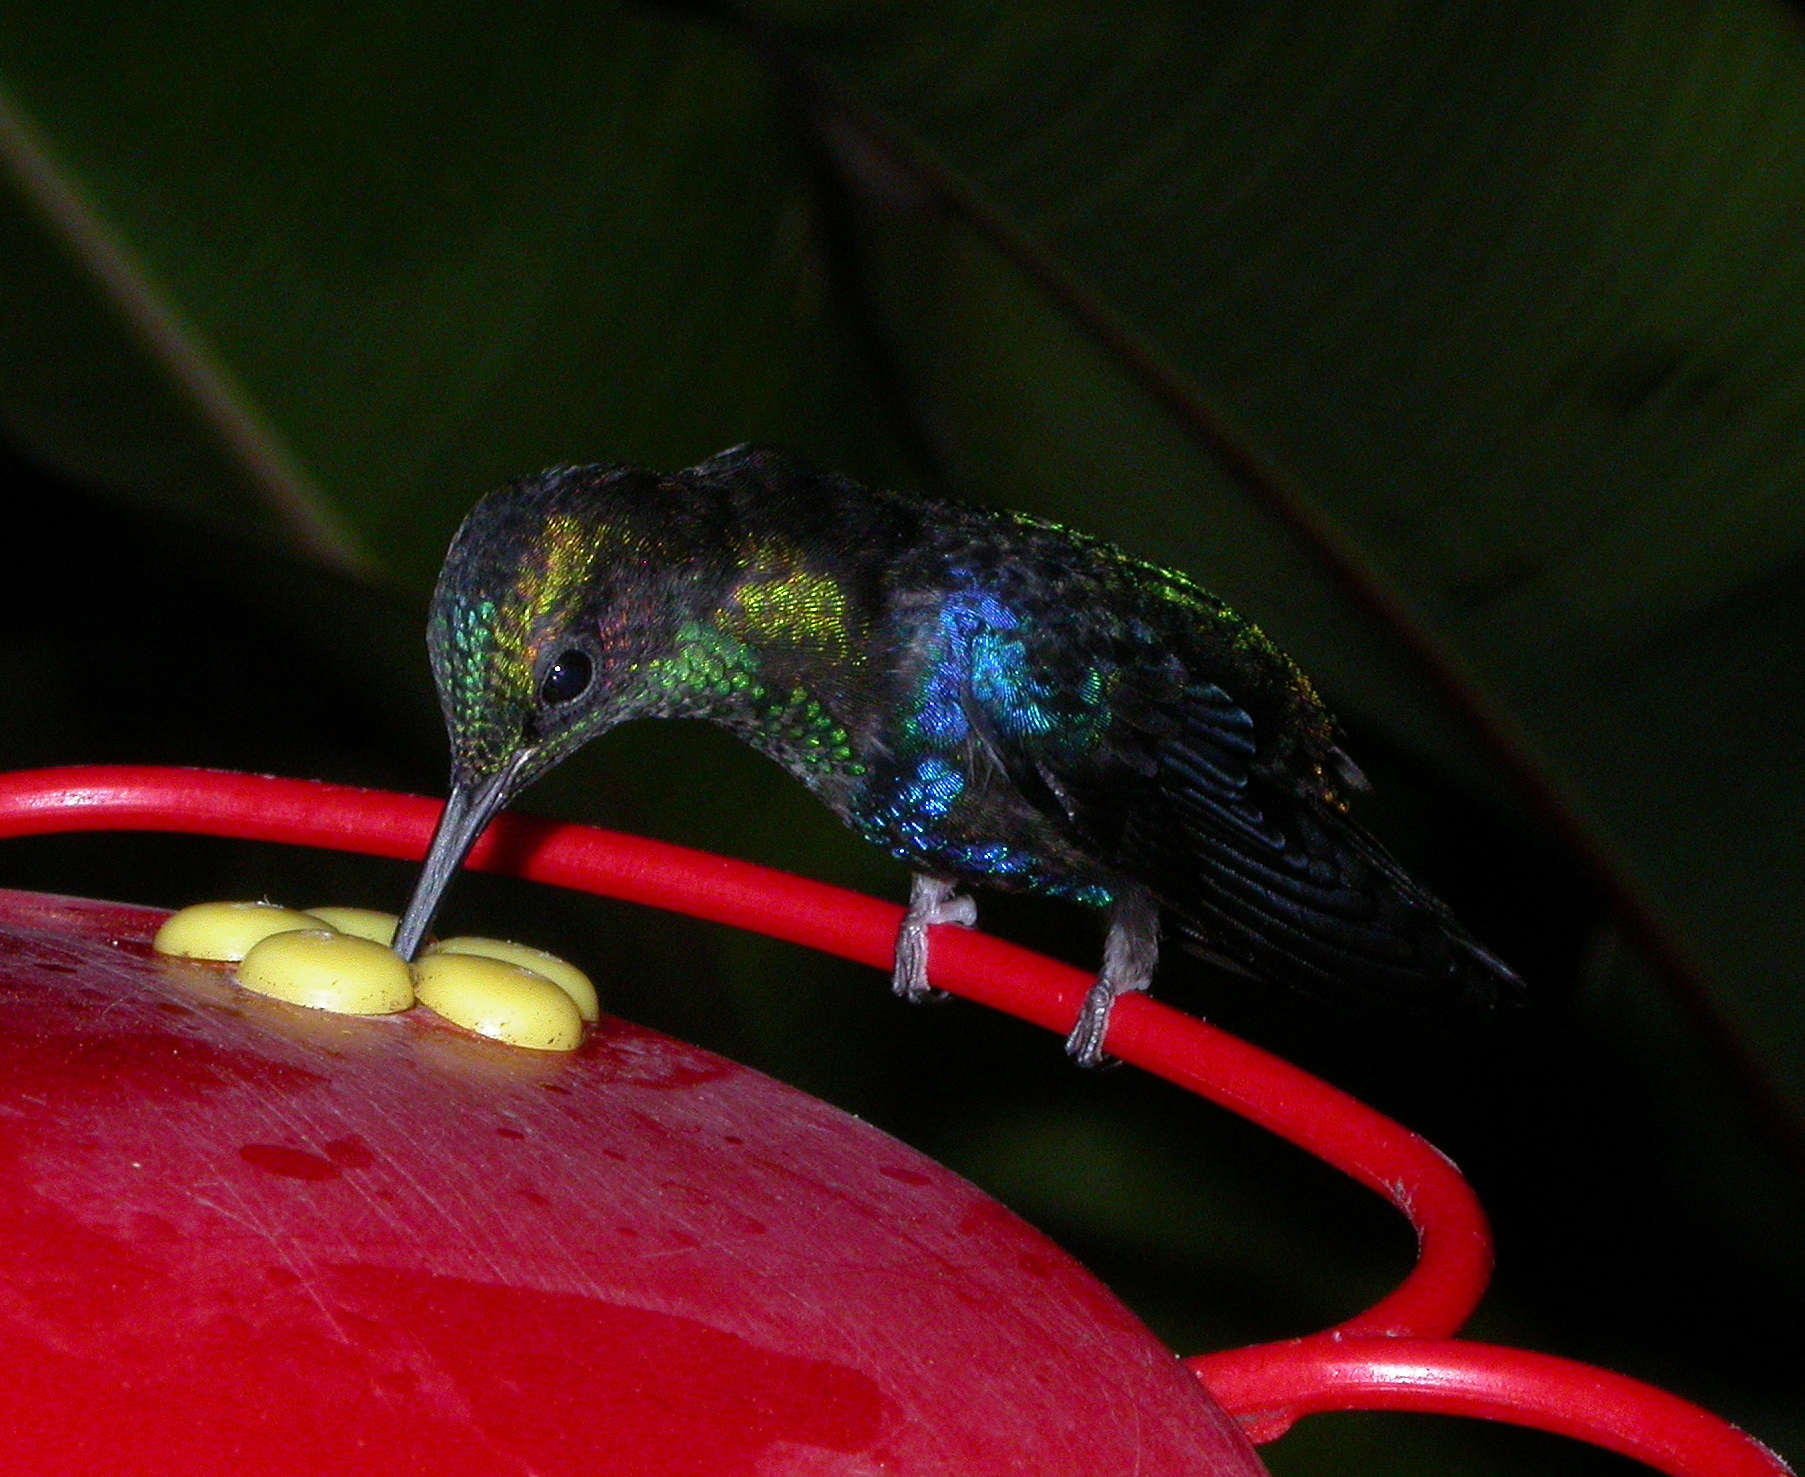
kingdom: Animalia
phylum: Chordata
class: Aves
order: Apodiformes
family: Trochilidae
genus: Thalurania
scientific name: Thalurania colombica
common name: Crowned woodnymph
